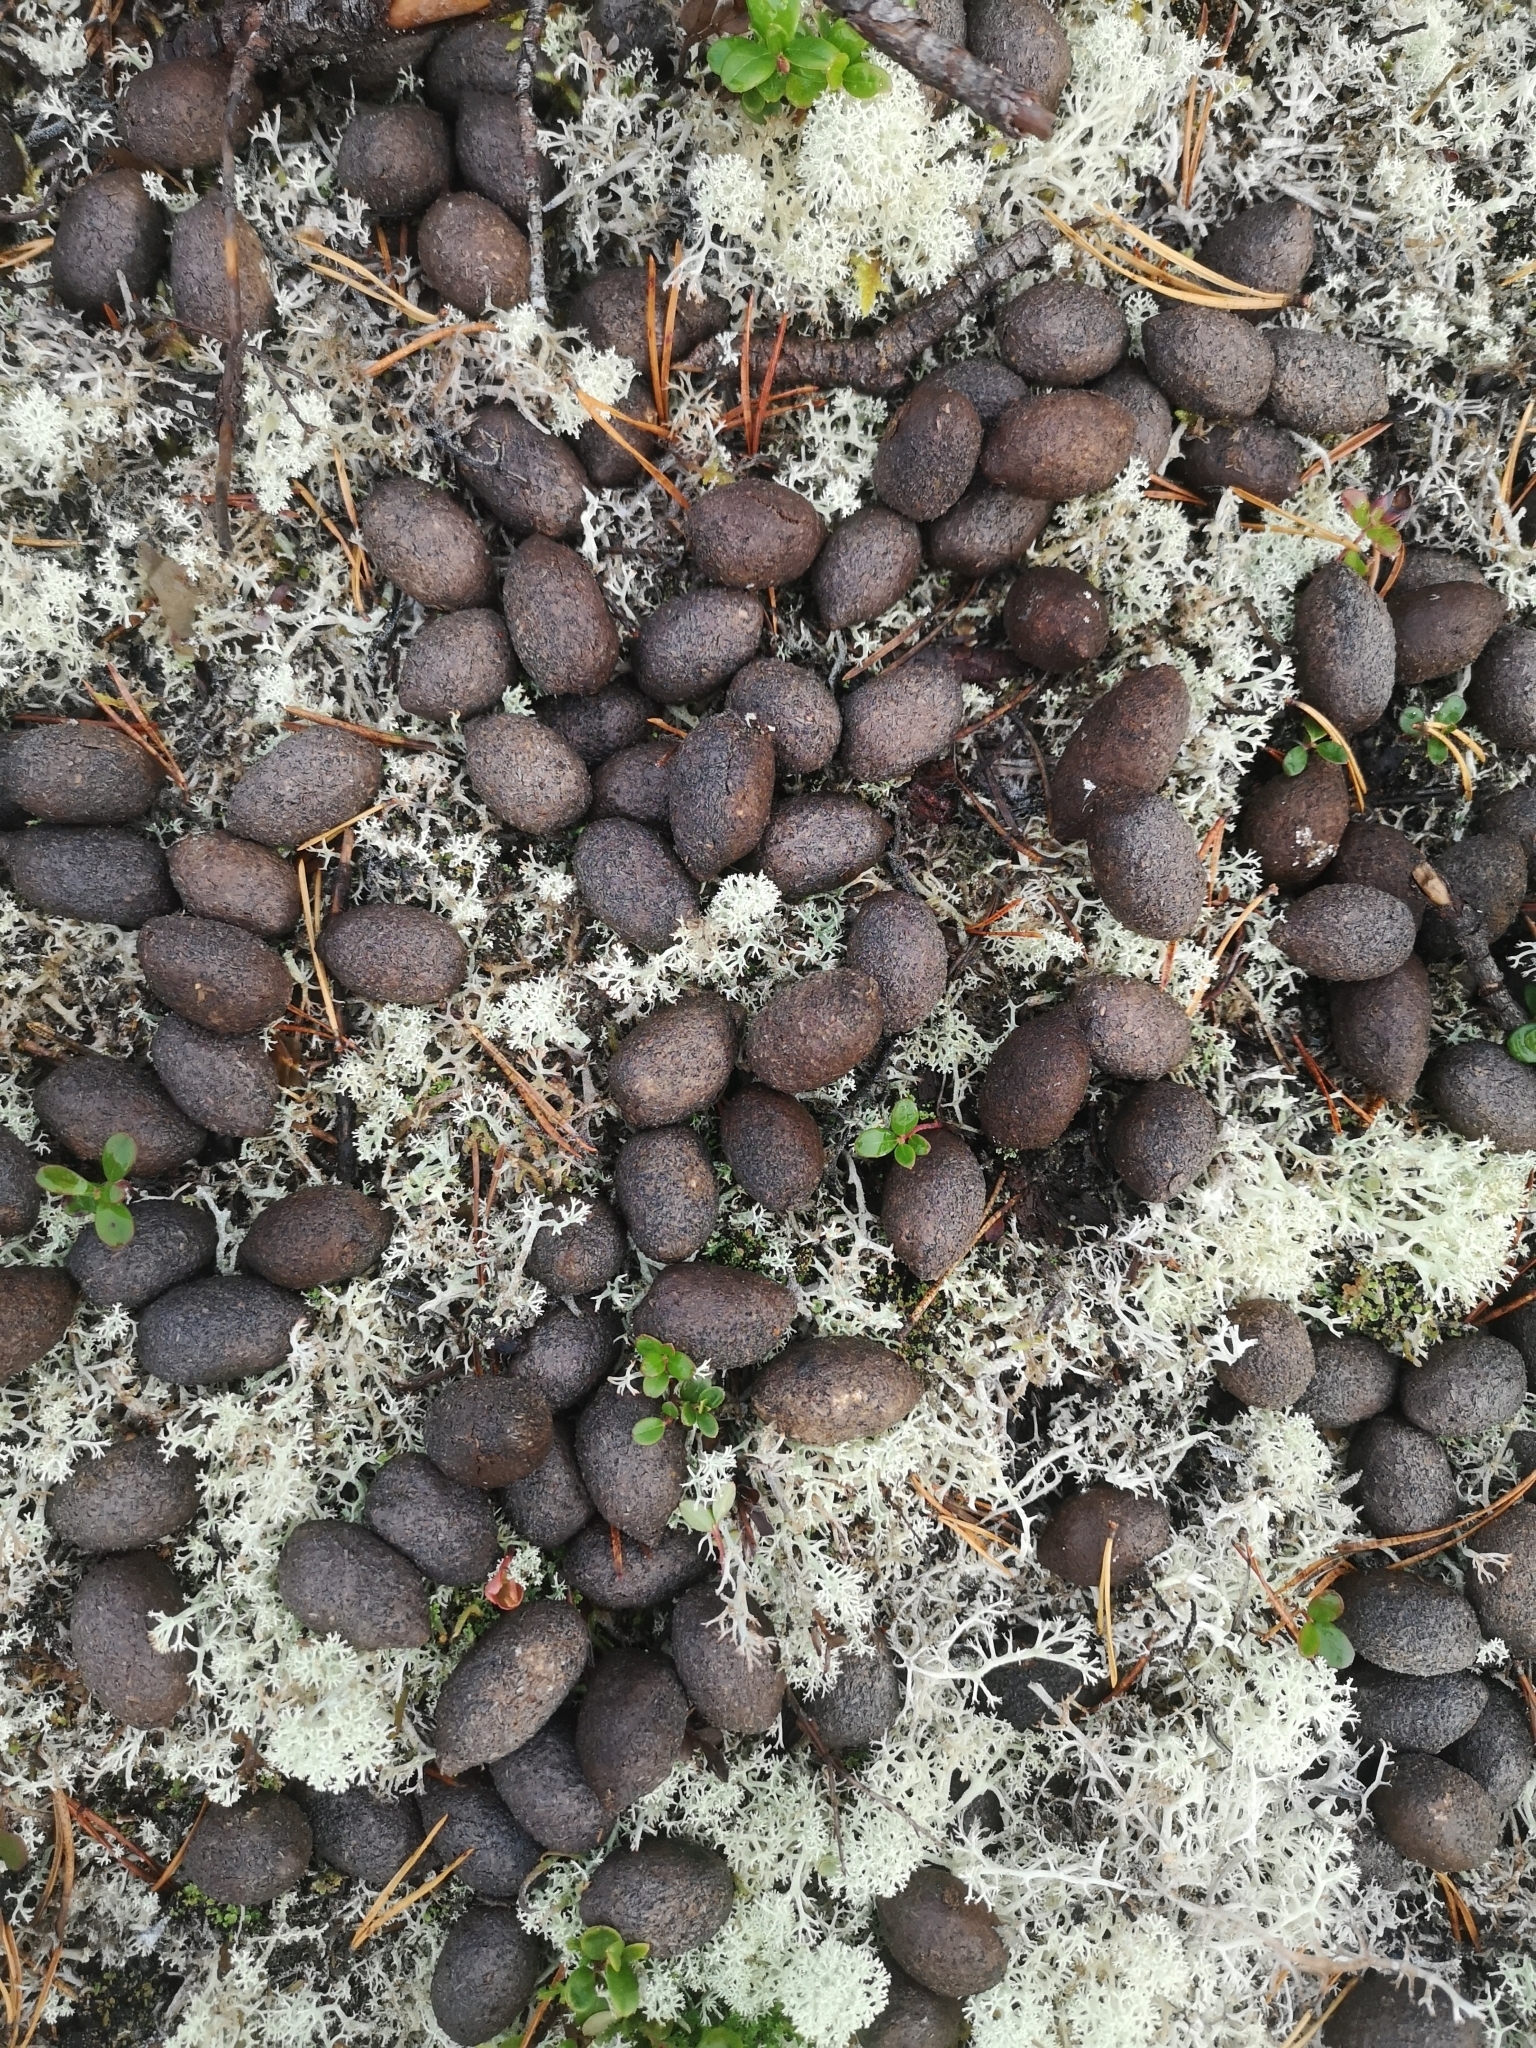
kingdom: Animalia
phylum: Chordata
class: Mammalia
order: Artiodactyla
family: Cervidae
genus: Alces
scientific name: Alces alces
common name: Moose
